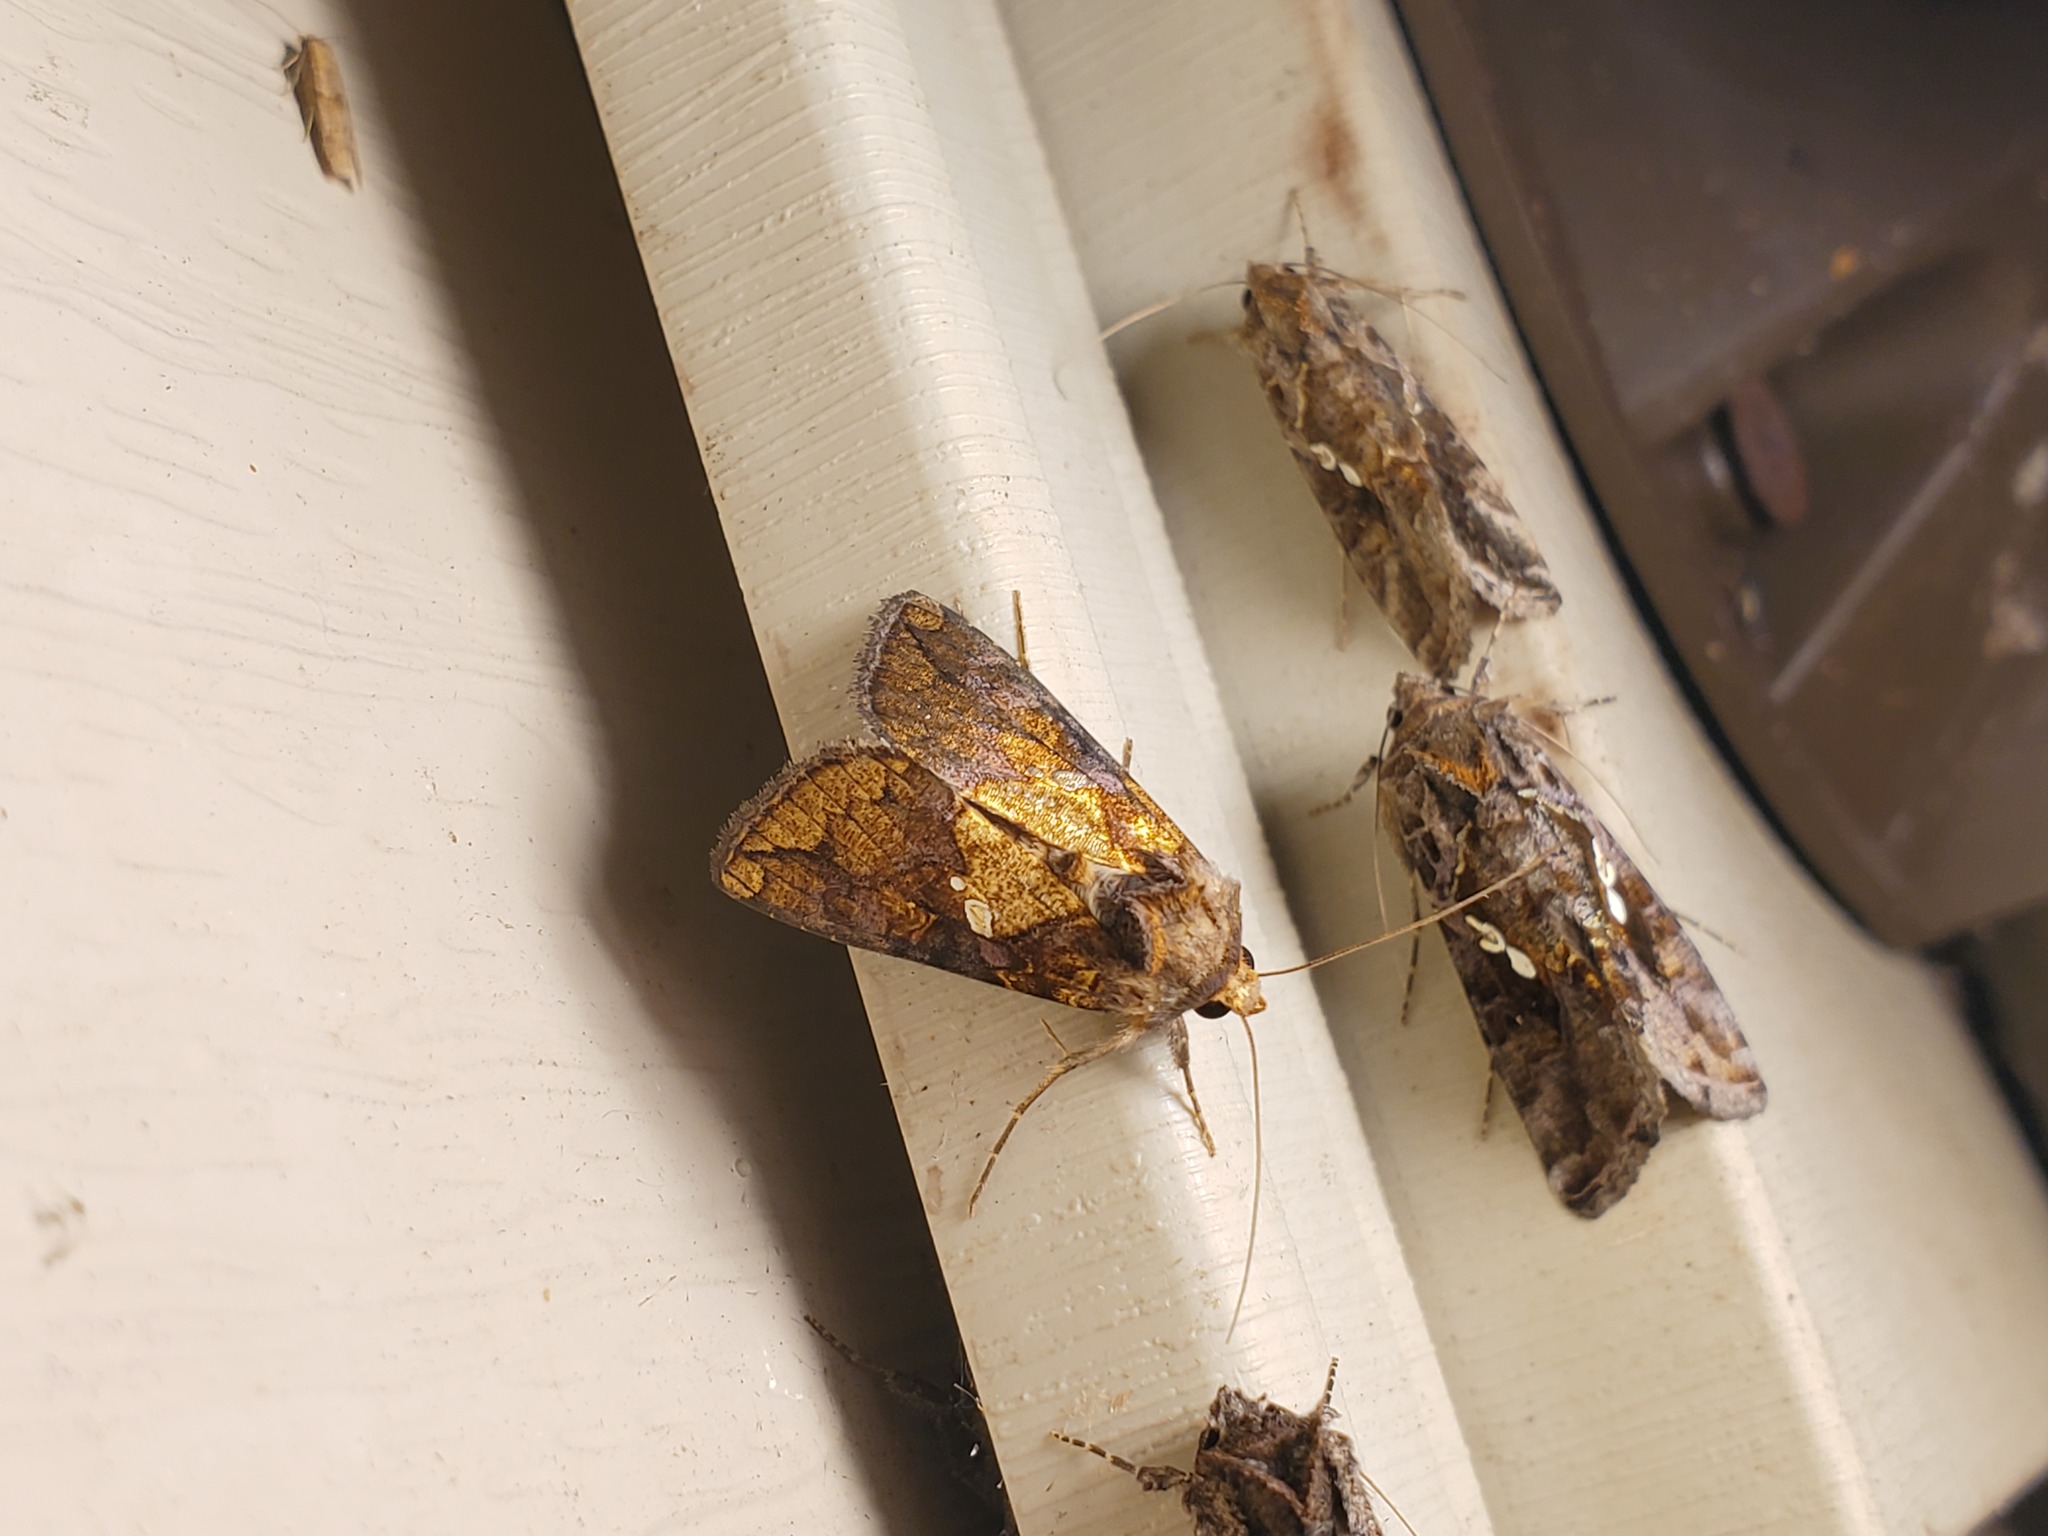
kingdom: Animalia
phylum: Arthropoda
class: Insecta
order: Lepidoptera
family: Noctuidae
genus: Argyrogramma
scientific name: Argyrogramma verruca
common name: Golden looper moth
